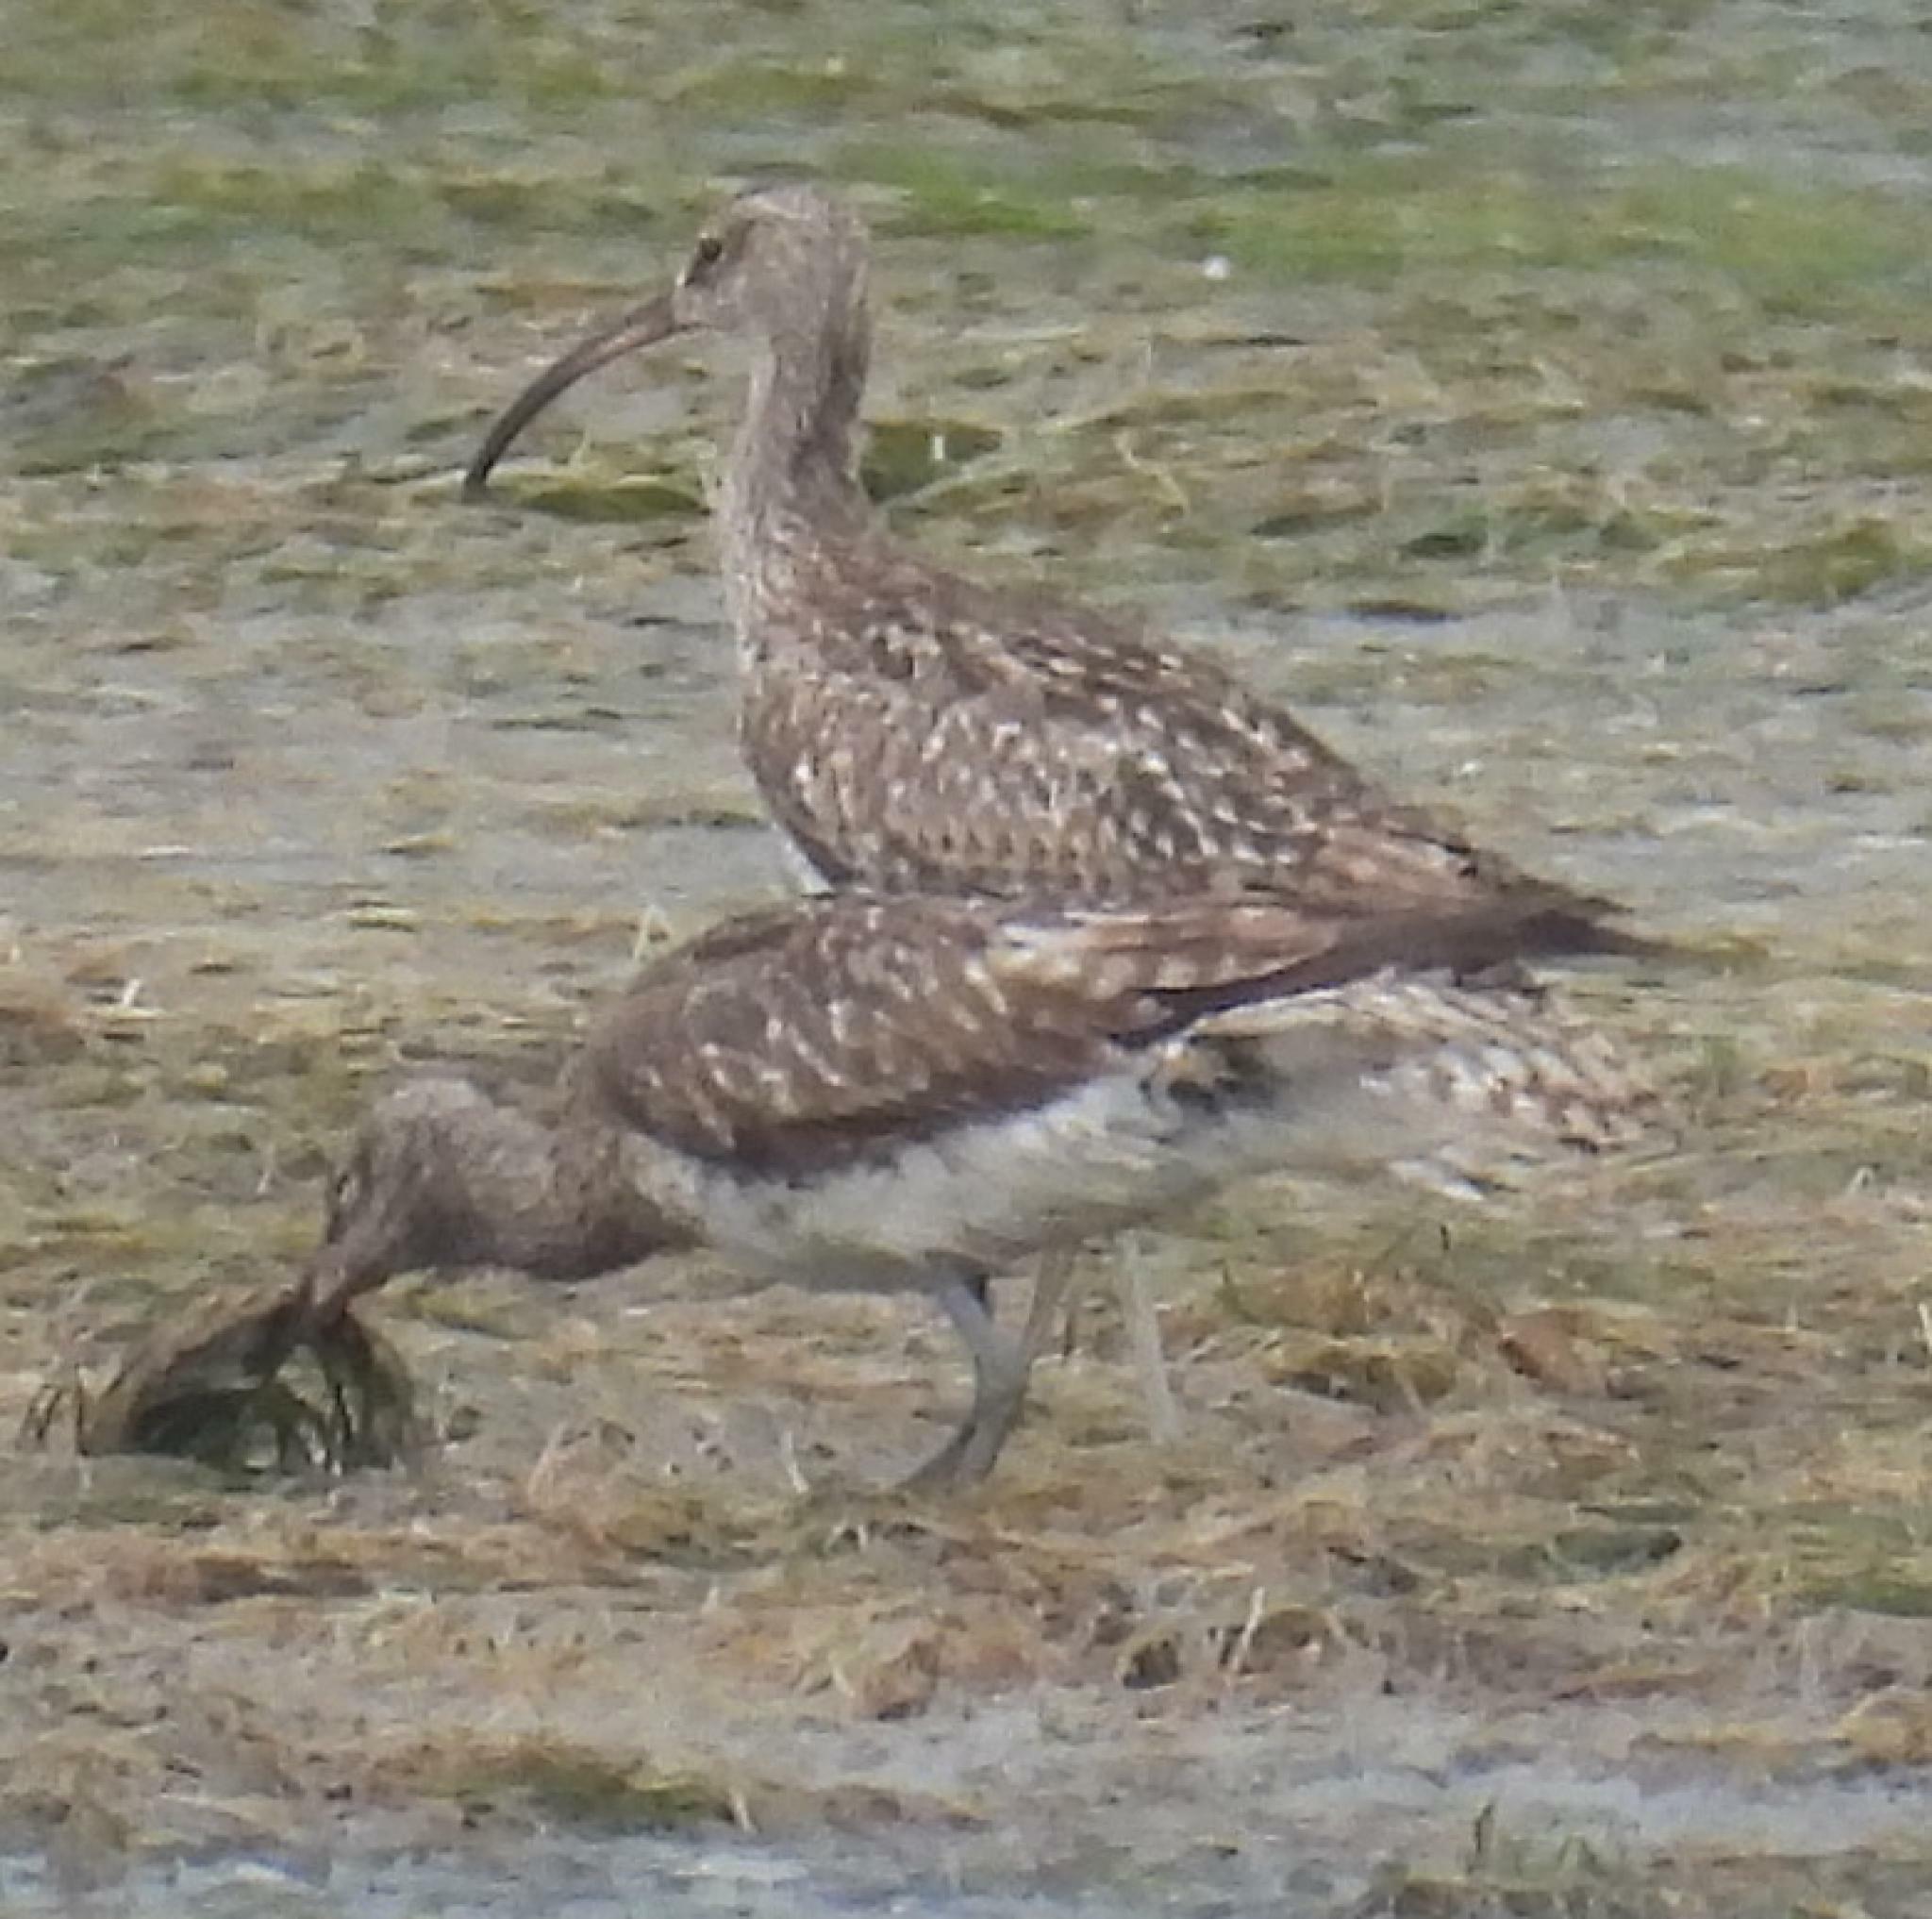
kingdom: Animalia
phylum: Chordata
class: Aves
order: Charadriiformes
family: Scolopacidae
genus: Numenius
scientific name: Numenius phaeopus
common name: Whimbrel
